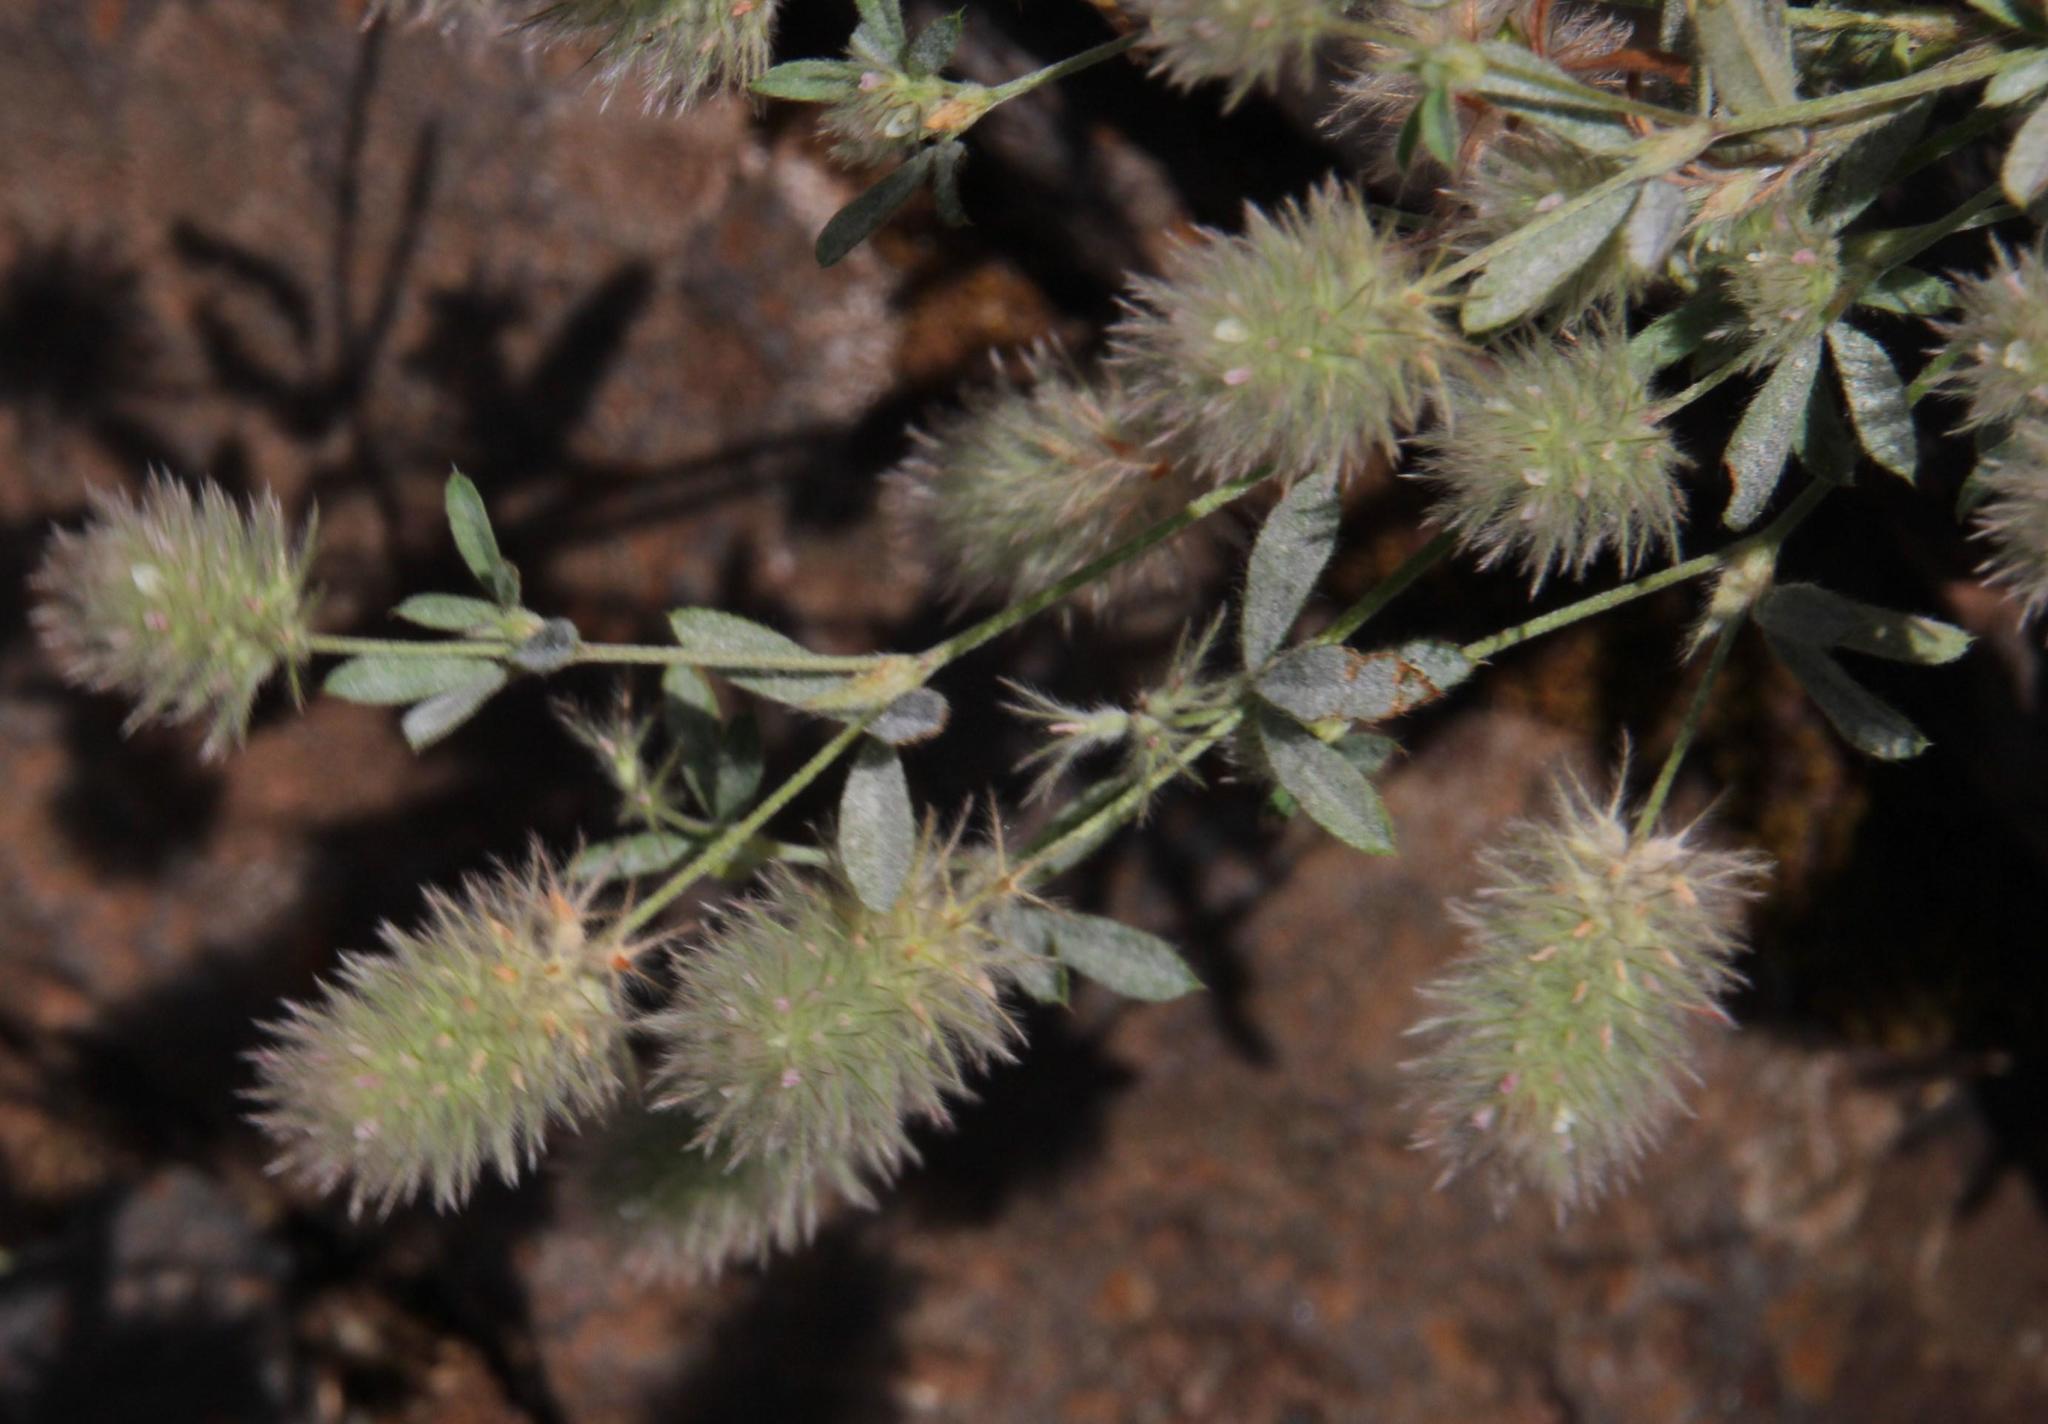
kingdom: Plantae
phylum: Tracheophyta
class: Magnoliopsida
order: Fabales
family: Fabaceae
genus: Trifolium
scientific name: Trifolium arvense
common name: Hare's-foot clover
